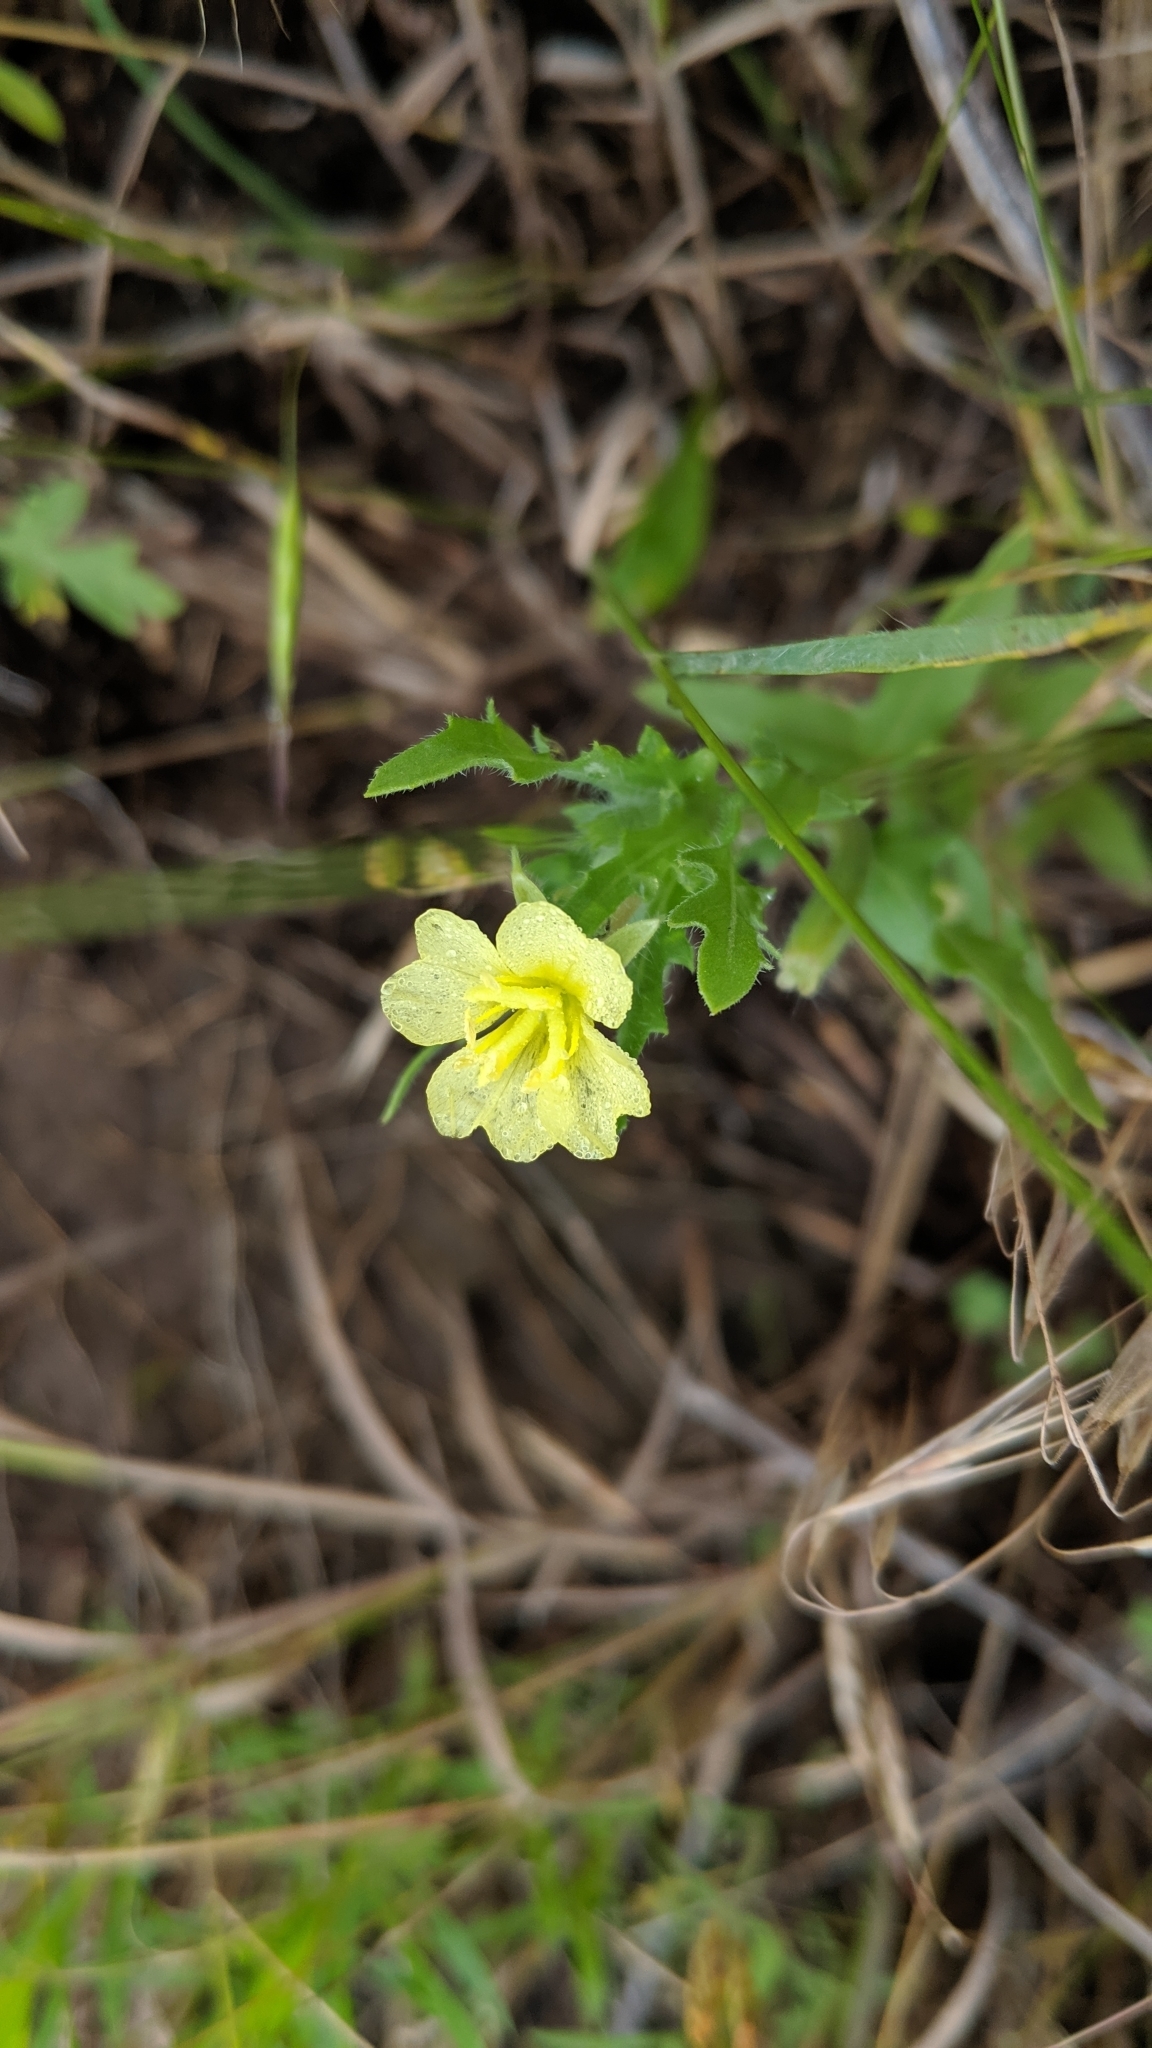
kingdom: Plantae
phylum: Tracheophyta
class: Magnoliopsida
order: Myrtales
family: Onagraceae
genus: Oenothera
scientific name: Oenothera laciniata
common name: Cut-leaved evening-primrose
